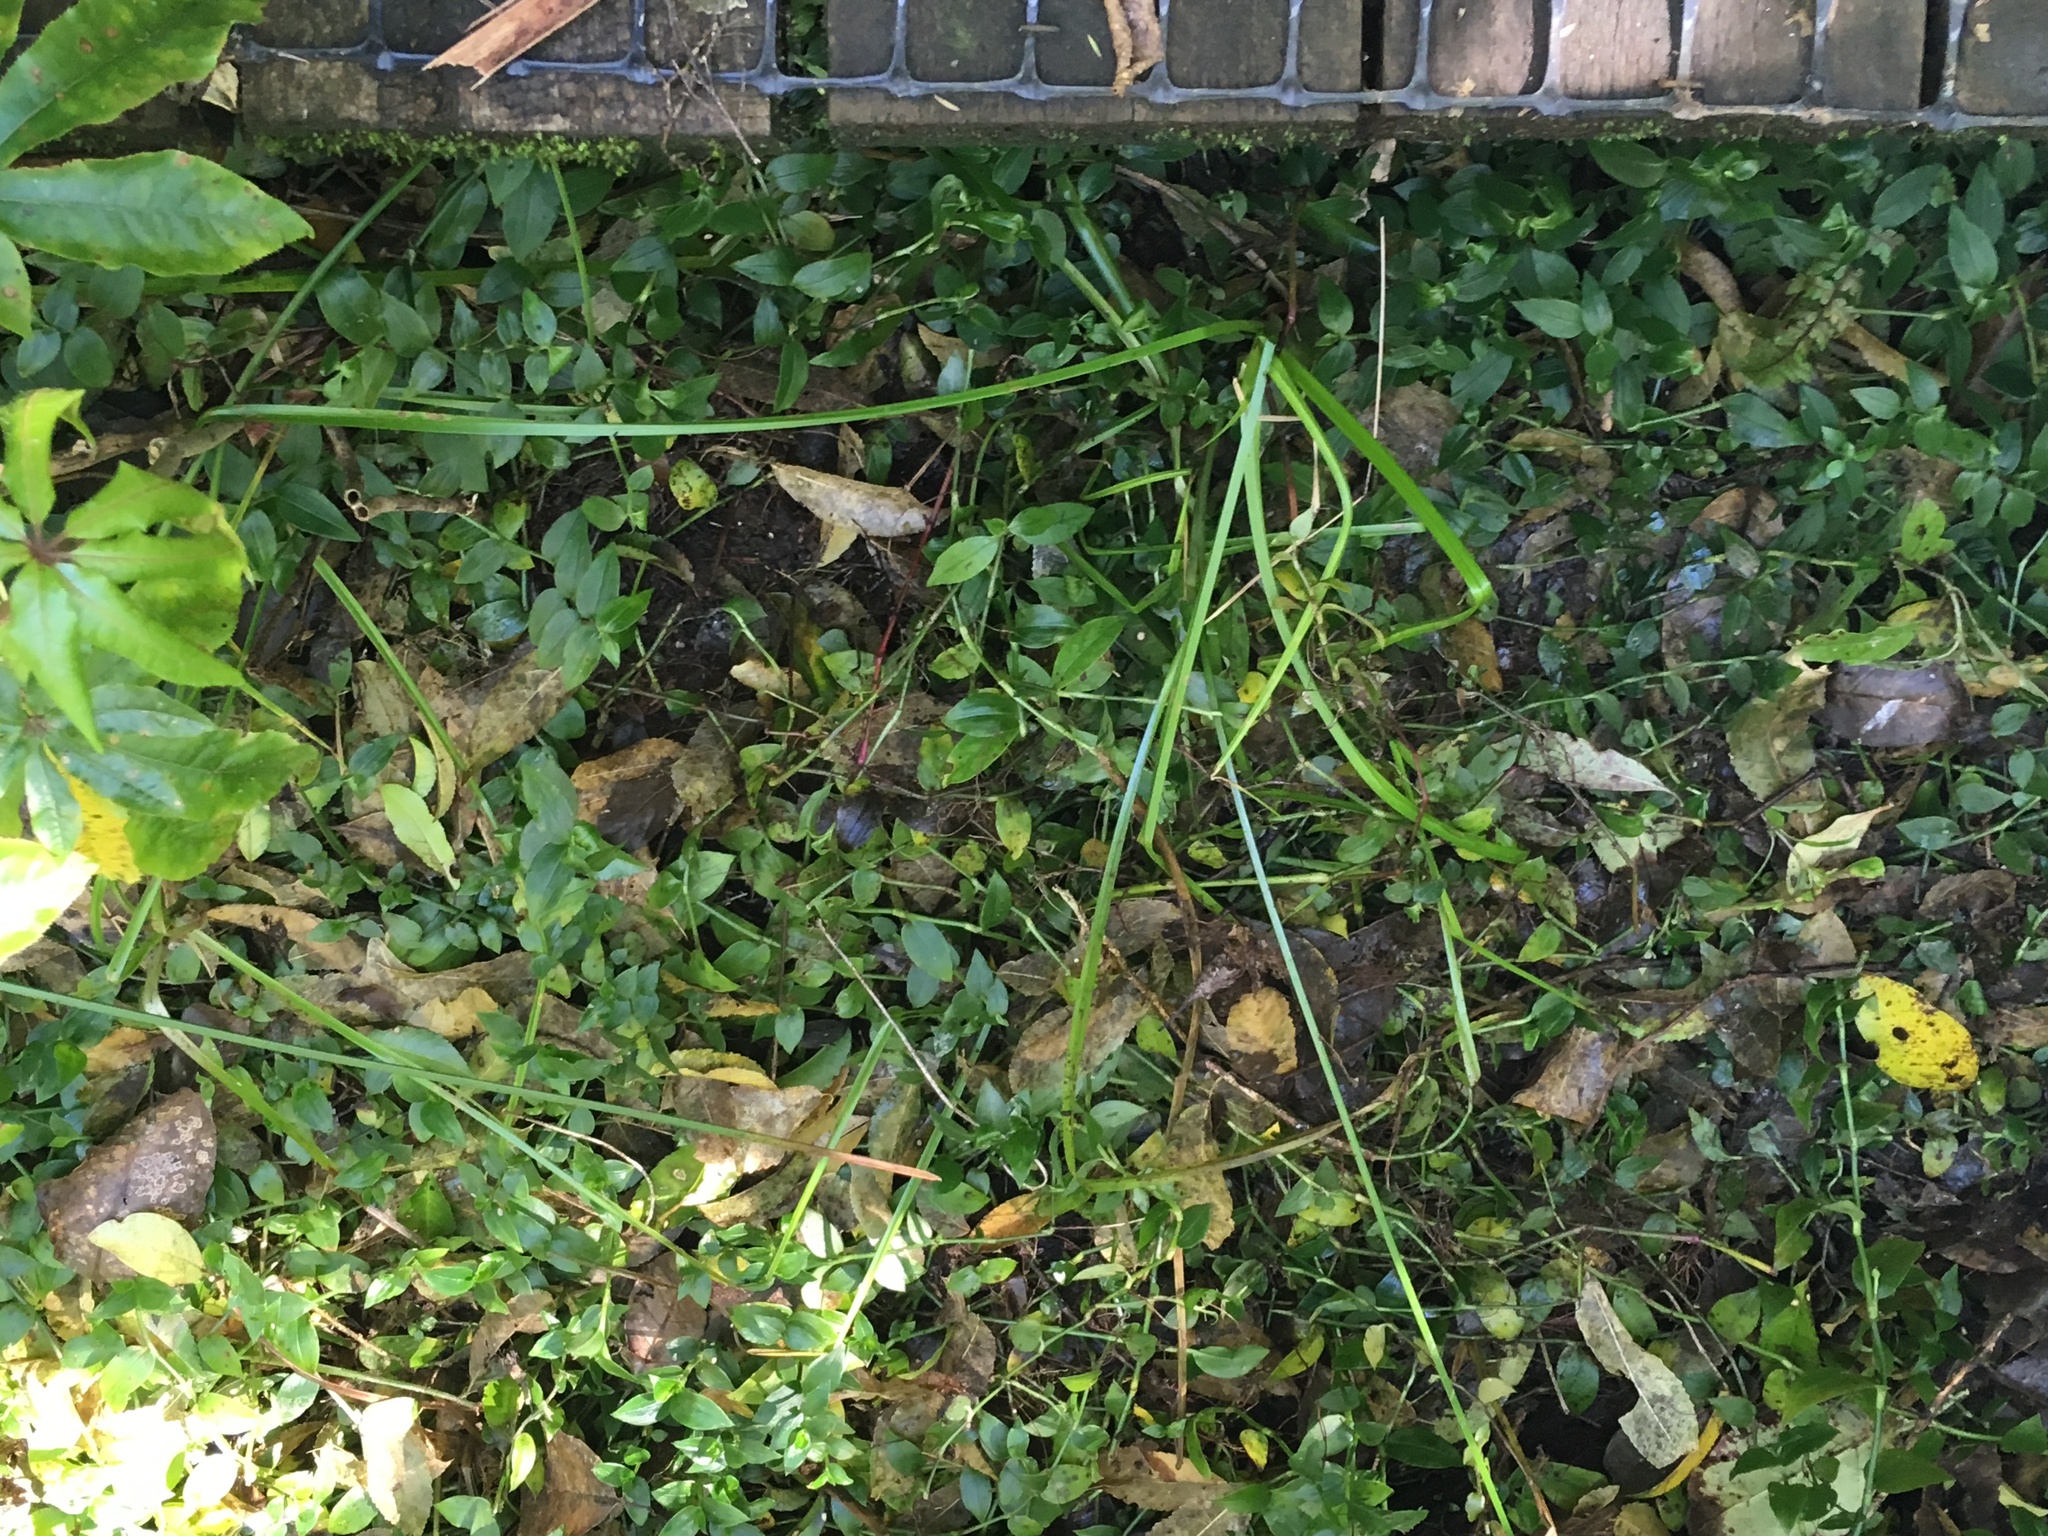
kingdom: Plantae
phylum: Tracheophyta
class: Liliopsida
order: Commelinales
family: Commelinaceae
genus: Tradescantia
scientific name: Tradescantia fluminensis
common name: Wandering-jew
